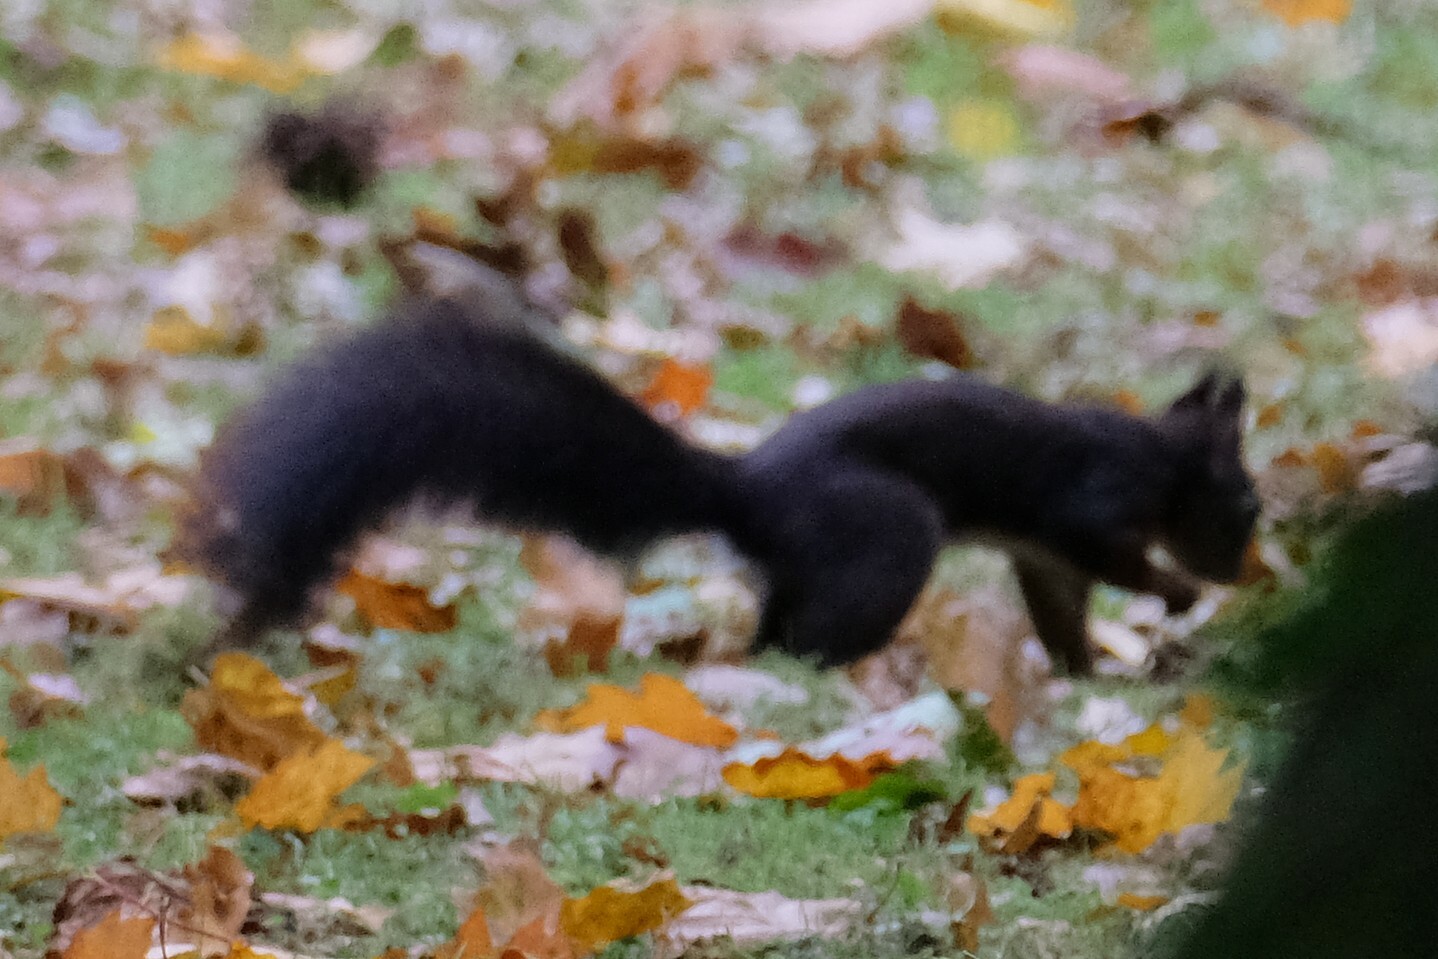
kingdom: Animalia
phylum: Chordata
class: Mammalia
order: Rodentia
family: Sciuridae
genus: Sciurus
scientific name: Sciurus vulgaris
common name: Eurasian red squirrel
